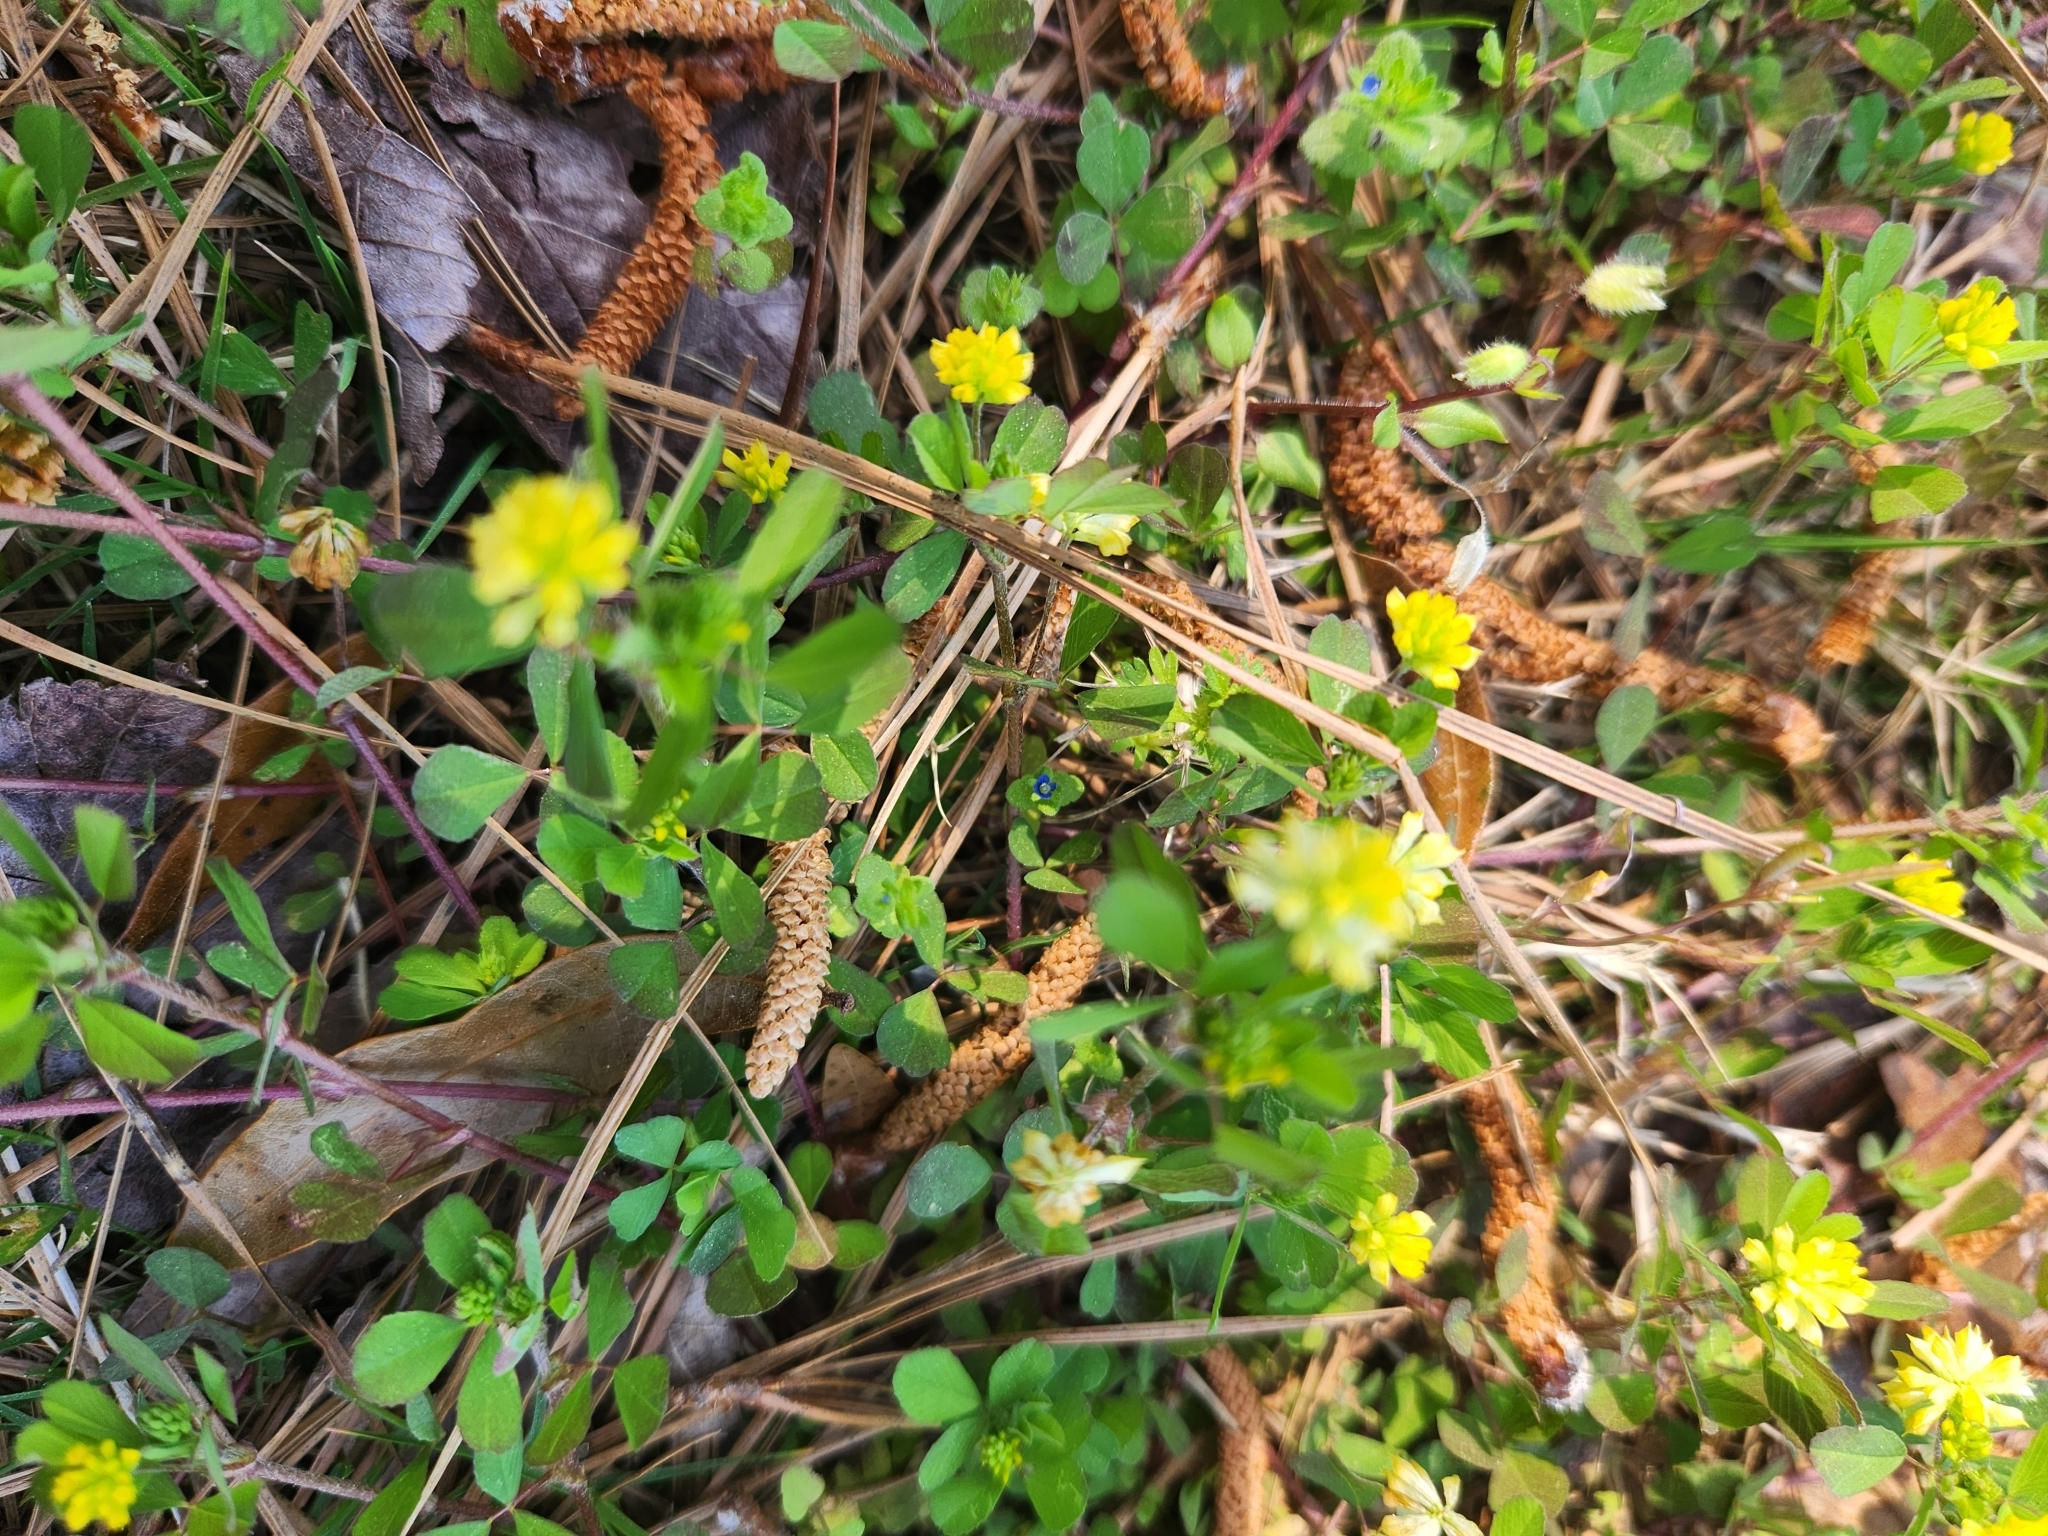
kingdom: Plantae
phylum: Tracheophyta
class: Magnoliopsida
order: Fabales
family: Fabaceae
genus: Trifolium
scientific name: Trifolium dubium
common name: Suckling clover
